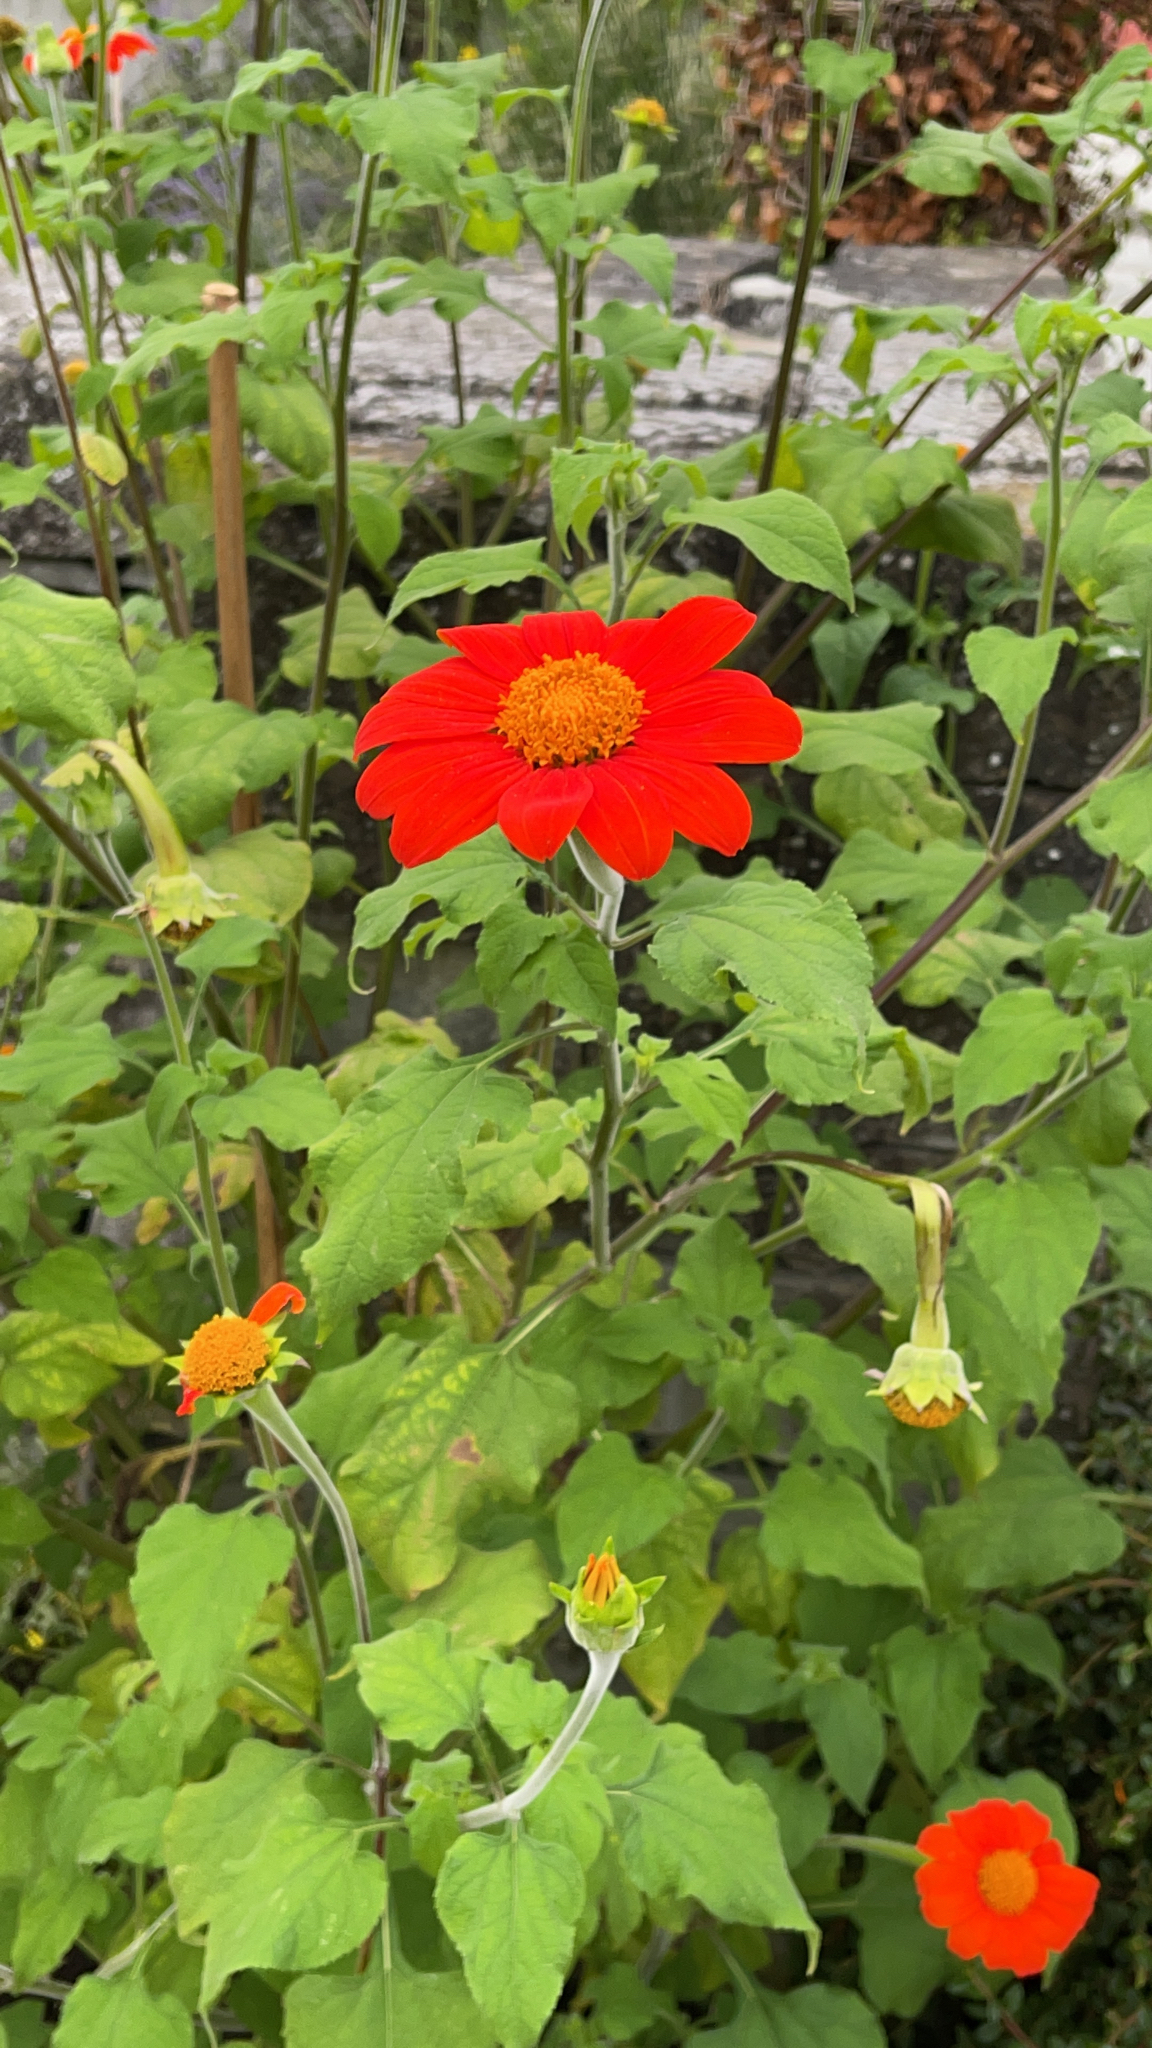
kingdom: Plantae
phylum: Tracheophyta
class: Magnoliopsida
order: Asterales
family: Asteraceae
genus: Tithonia
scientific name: Tithonia rotundifolia
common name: Sunflower
